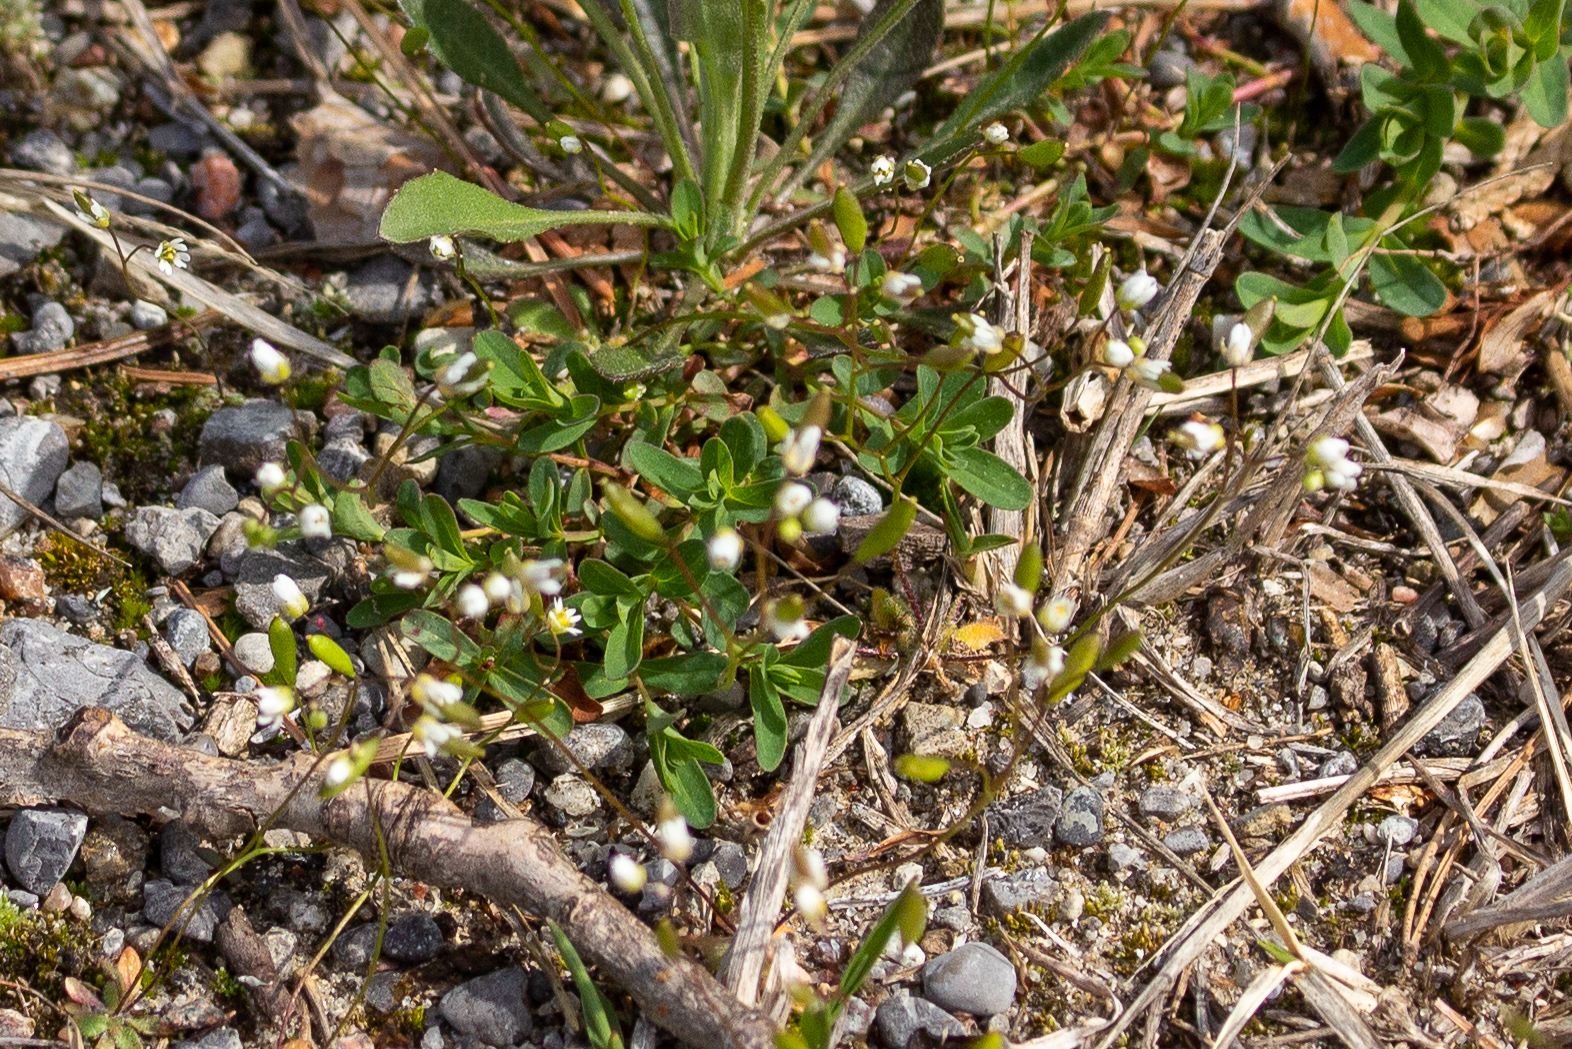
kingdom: Plantae
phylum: Tracheophyta
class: Magnoliopsida
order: Brassicales
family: Brassicaceae
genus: Draba
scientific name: Draba verna
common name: Spring draba
